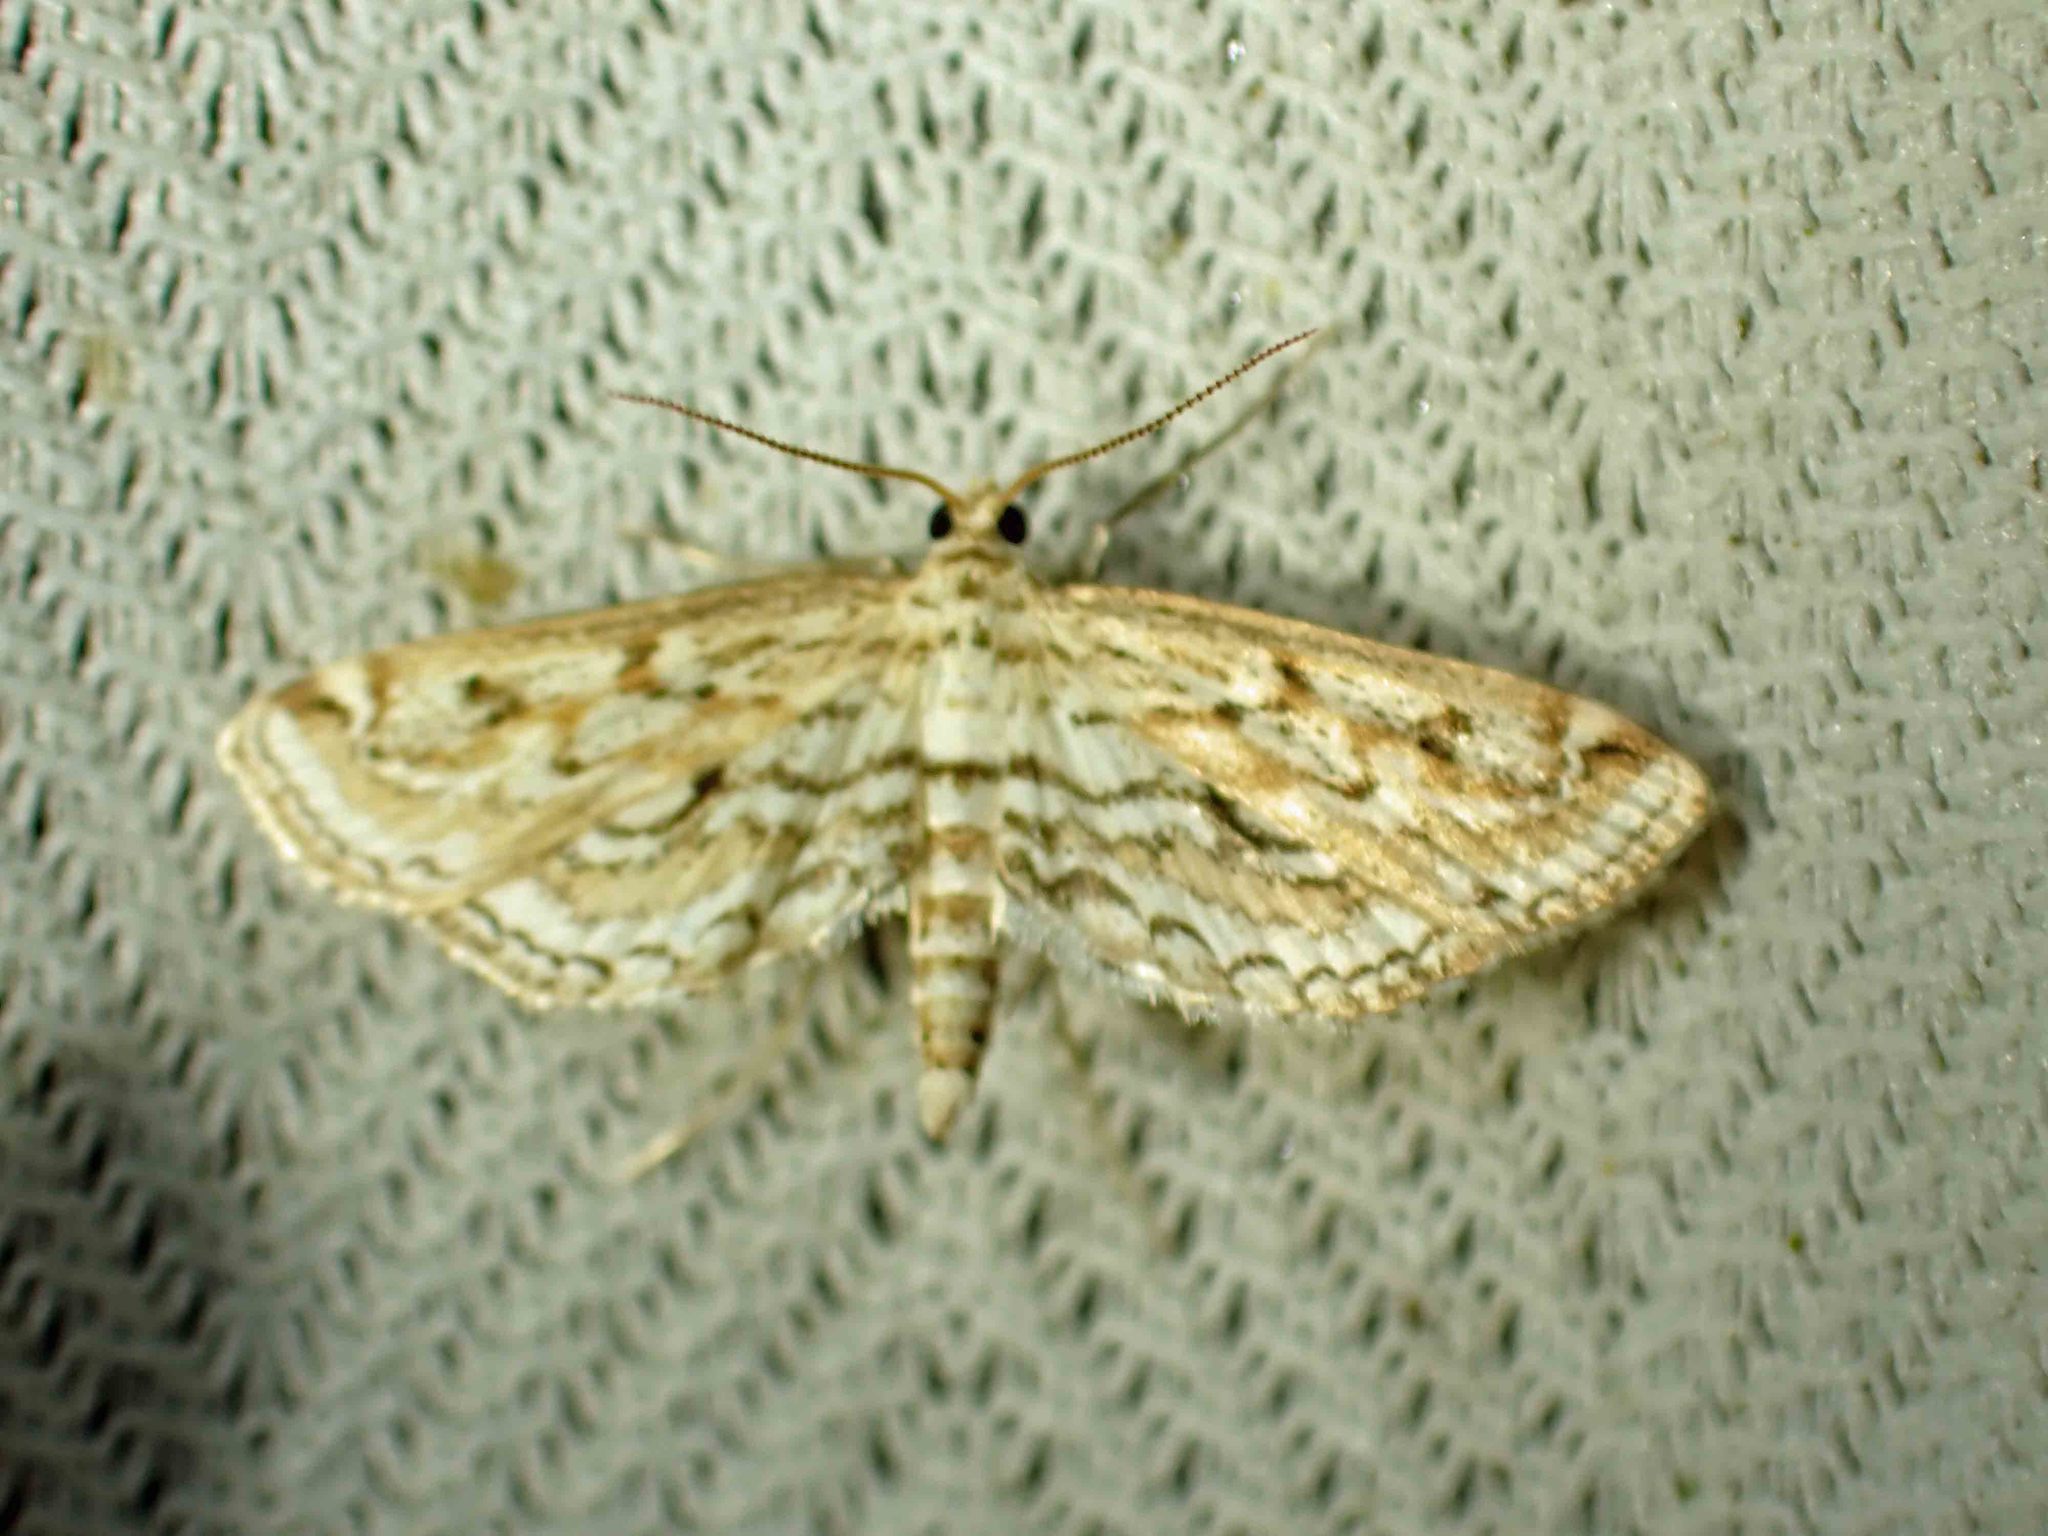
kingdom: Animalia
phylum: Arthropoda
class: Insecta
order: Lepidoptera
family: Crambidae
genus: Parapoynx
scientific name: Parapoynx allionealis
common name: Bladderwort casemaker
